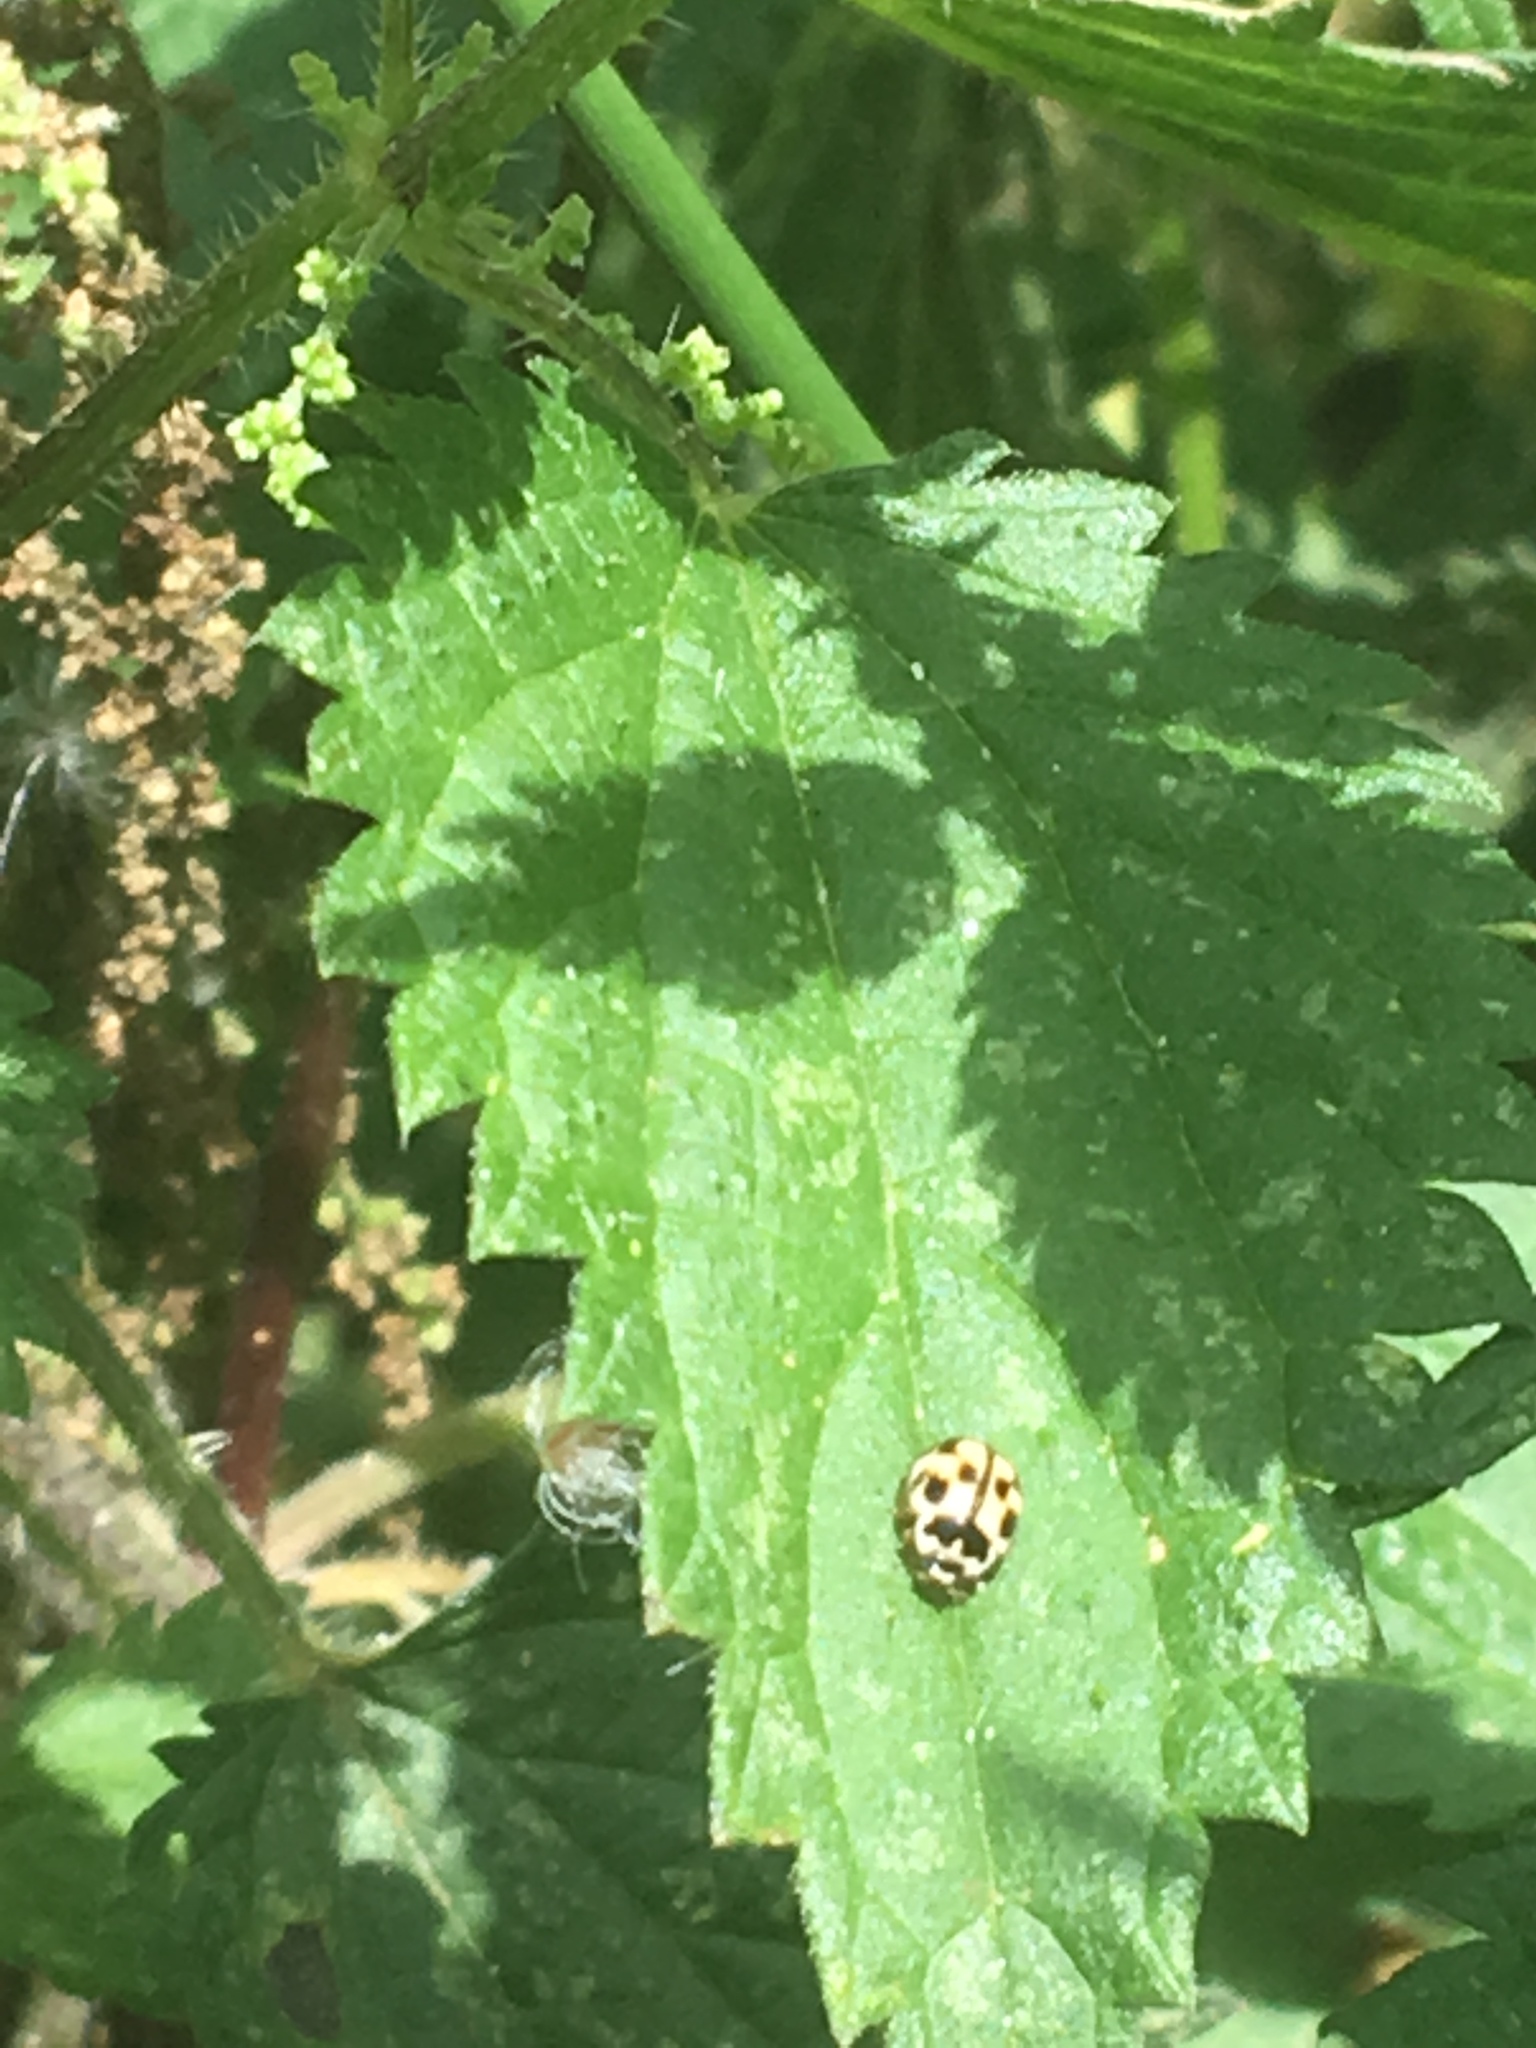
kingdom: Animalia
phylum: Arthropoda
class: Insecta
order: Coleoptera
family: Coccinellidae
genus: Propylaea
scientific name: Propylaea quatuordecimpunctata
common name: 14-spotted ladybird beetle
